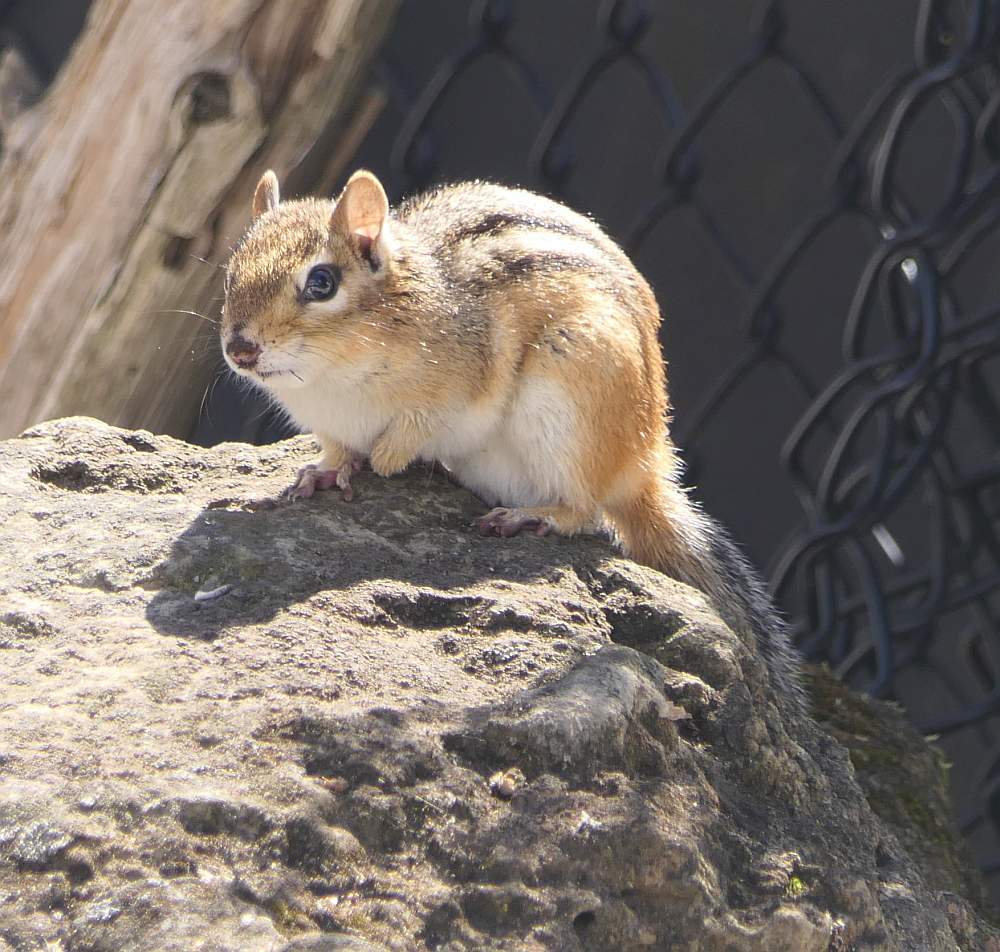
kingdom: Animalia
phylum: Chordata
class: Mammalia
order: Rodentia
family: Sciuridae
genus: Tamias
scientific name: Tamias striatus
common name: Eastern chipmunk
